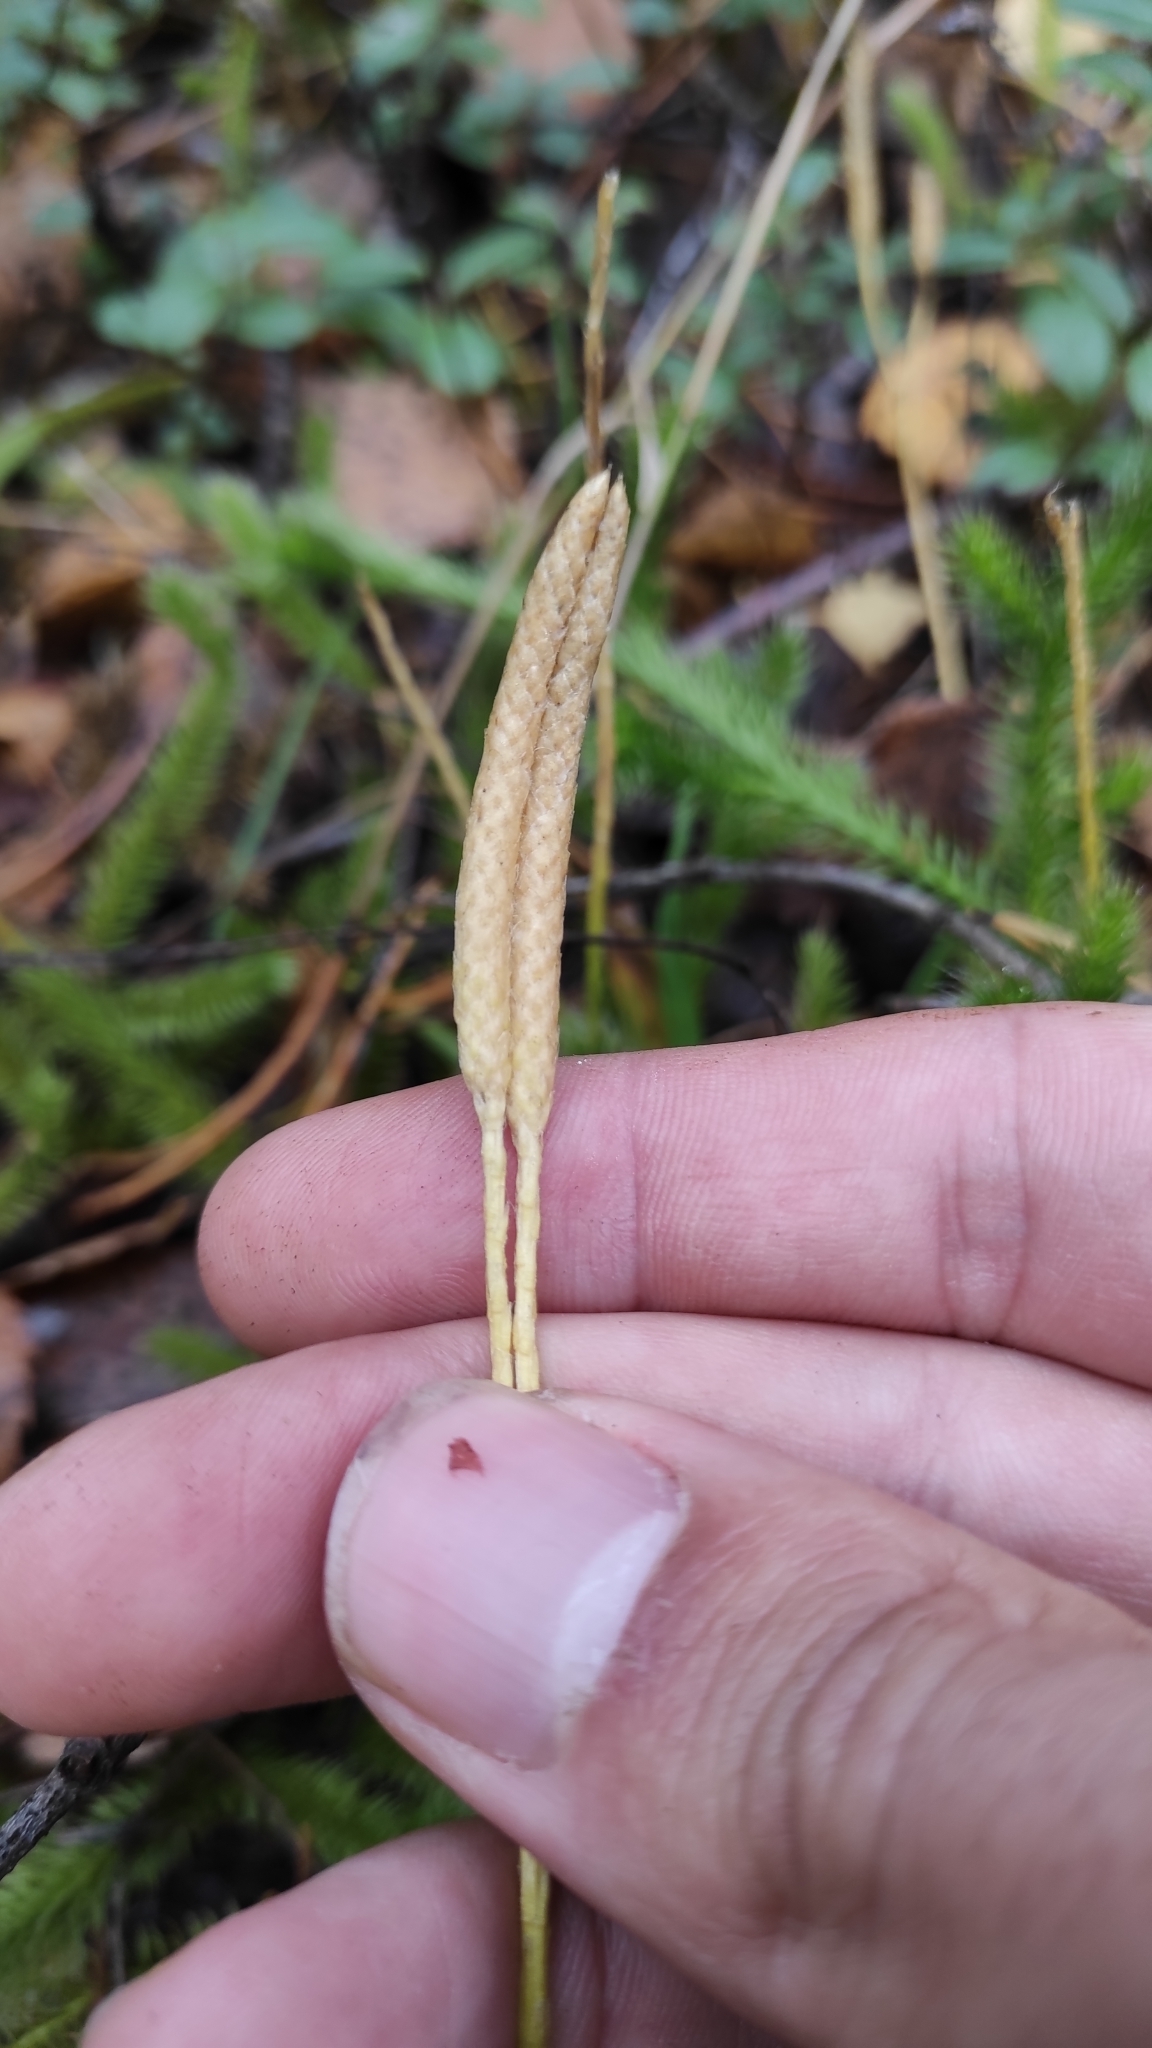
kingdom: Plantae
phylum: Tracheophyta
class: Lycopodiopsida
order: Lycopodiales
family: Lycopodiaceae
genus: Lycopodium
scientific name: Lycopodium clavatum
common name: Stag's-horn clubmoss
